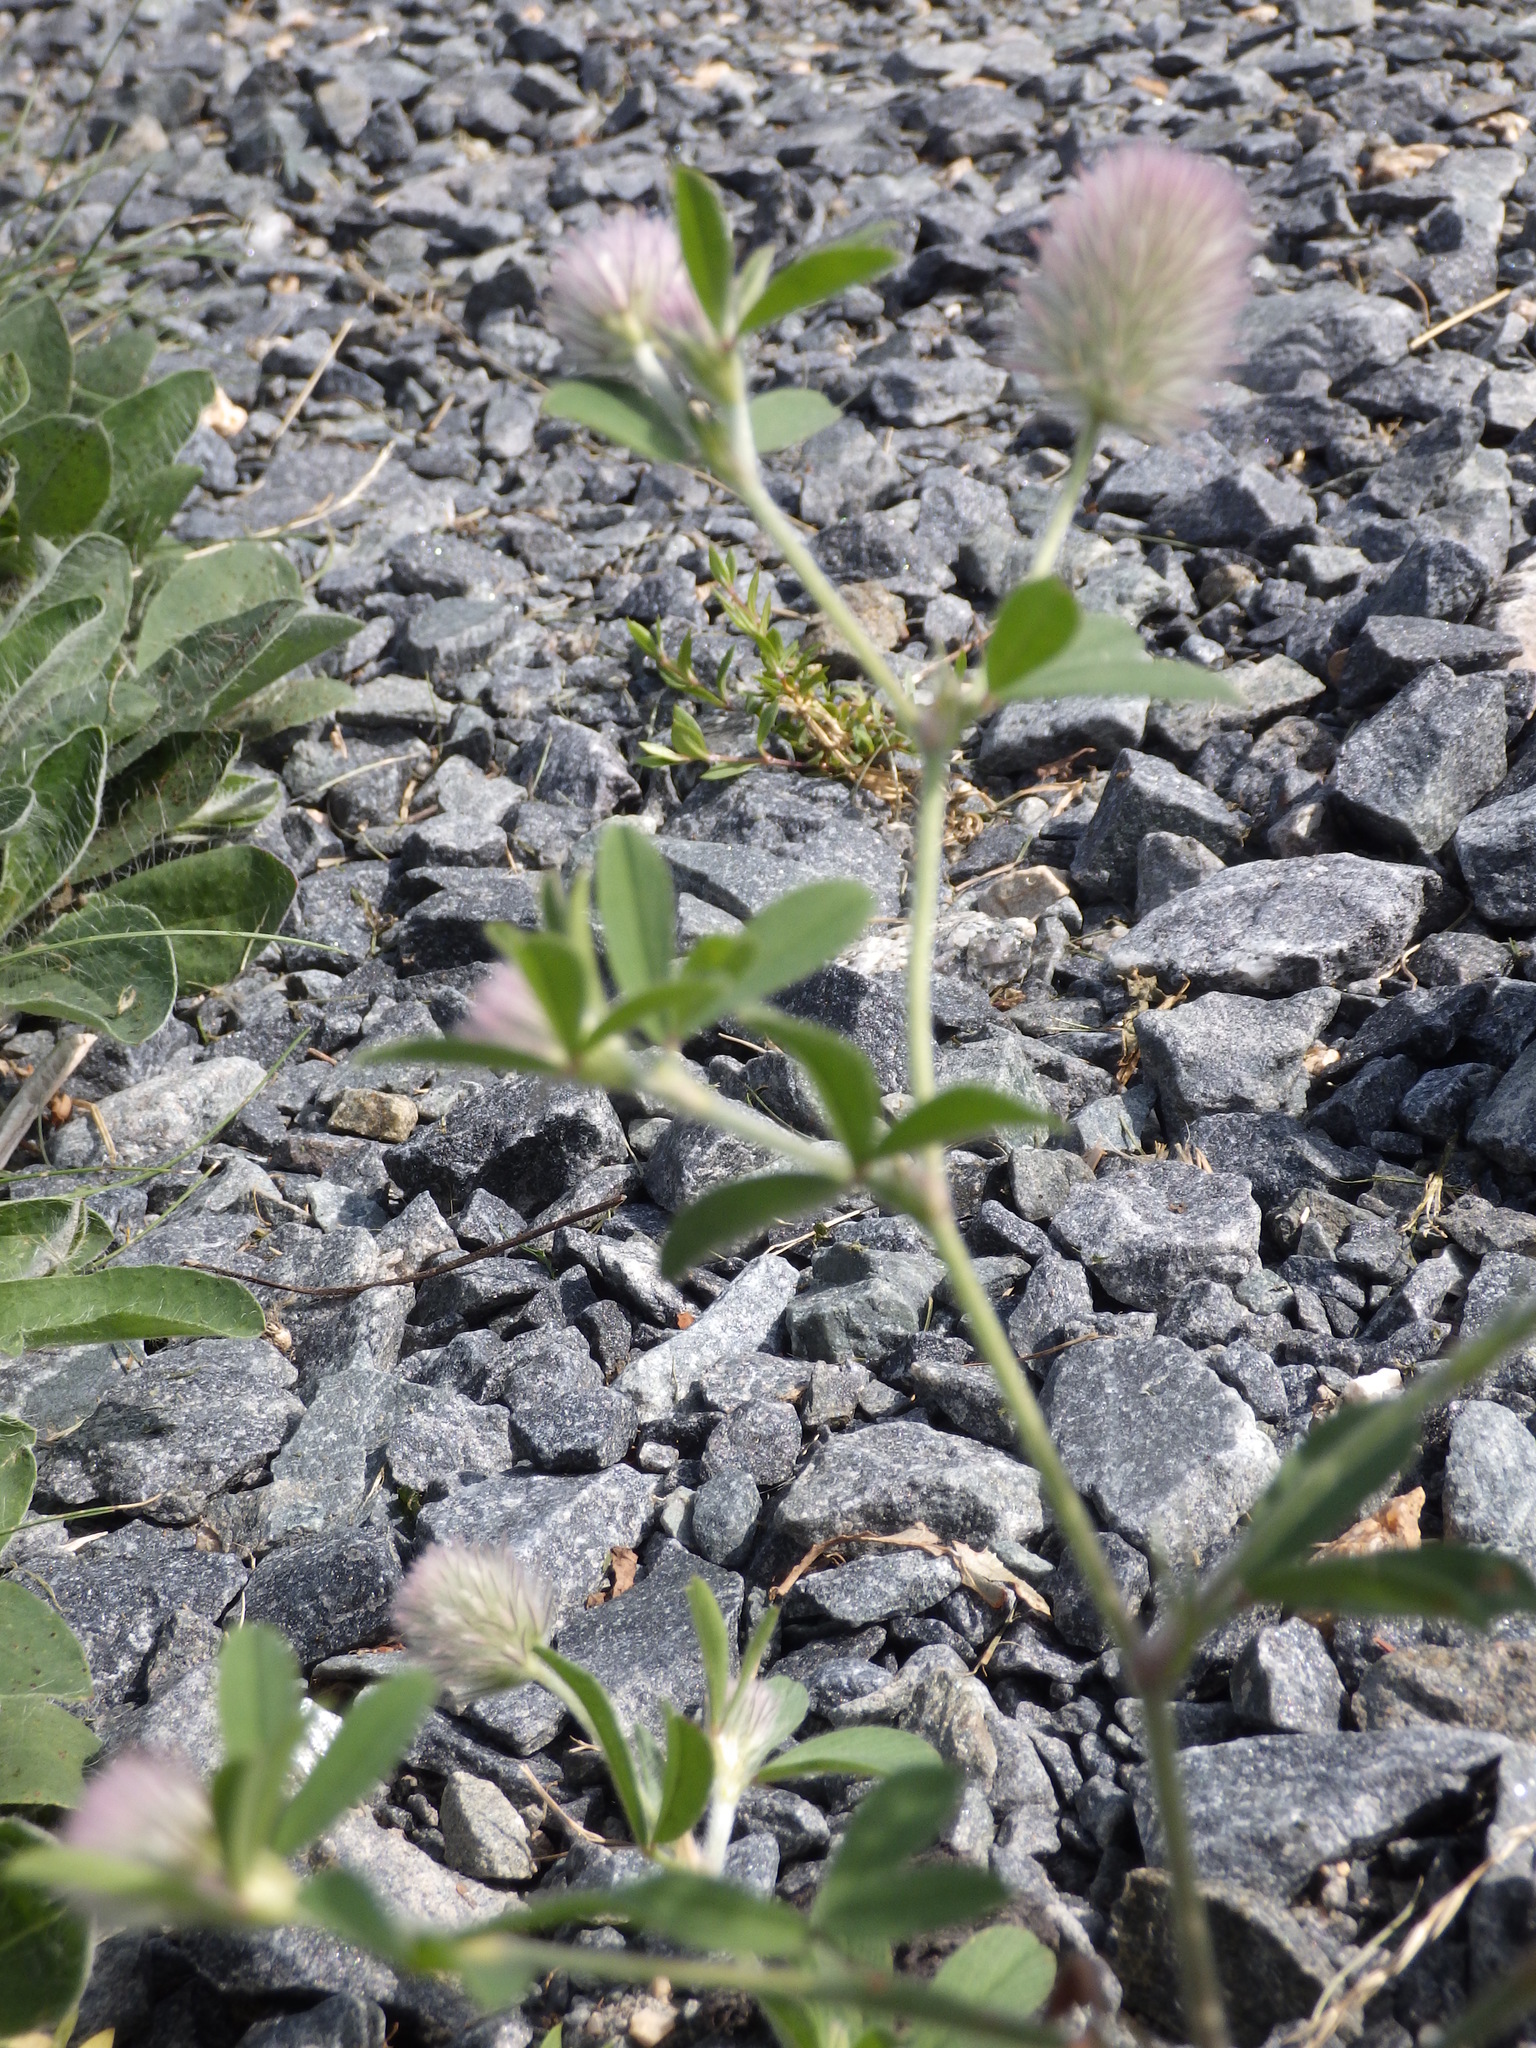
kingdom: Plantae
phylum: Tracheophyta
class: Magnoliopsida
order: Fabales
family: Fabaceae
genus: Trifolium
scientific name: Trifolium arvense
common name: Hare's-foot clover
